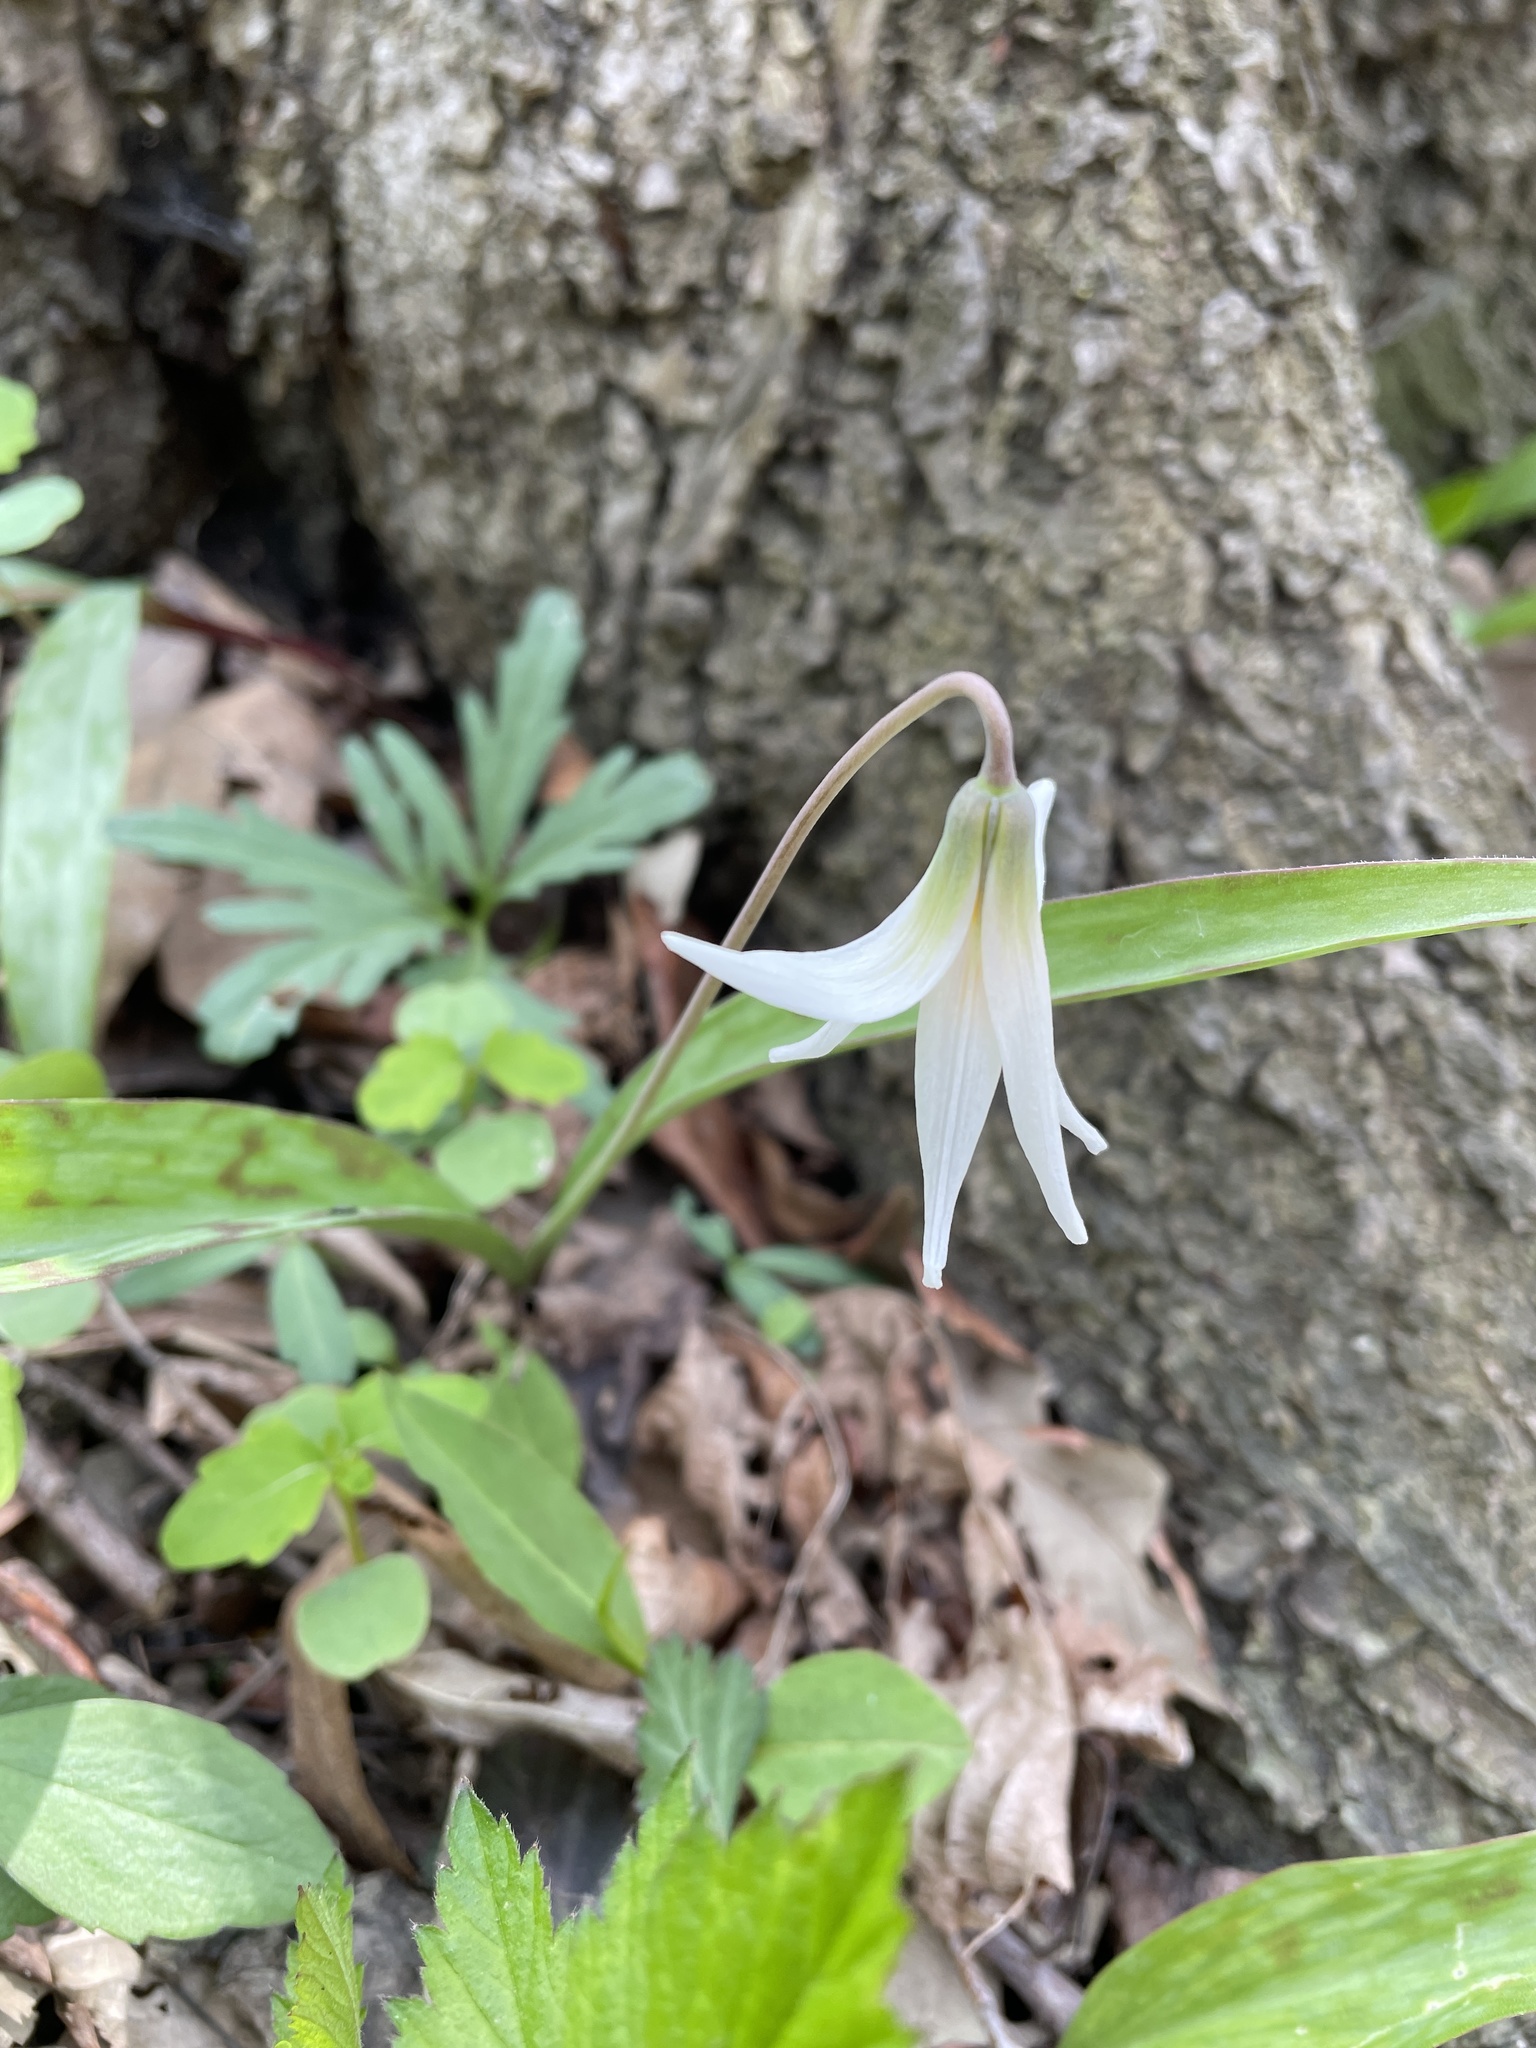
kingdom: Plantae
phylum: Tracheophyta
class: Liliopsida
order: Liliales
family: Liliaceae
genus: Erythronium
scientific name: Erythronium albidum
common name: White trout-lily
